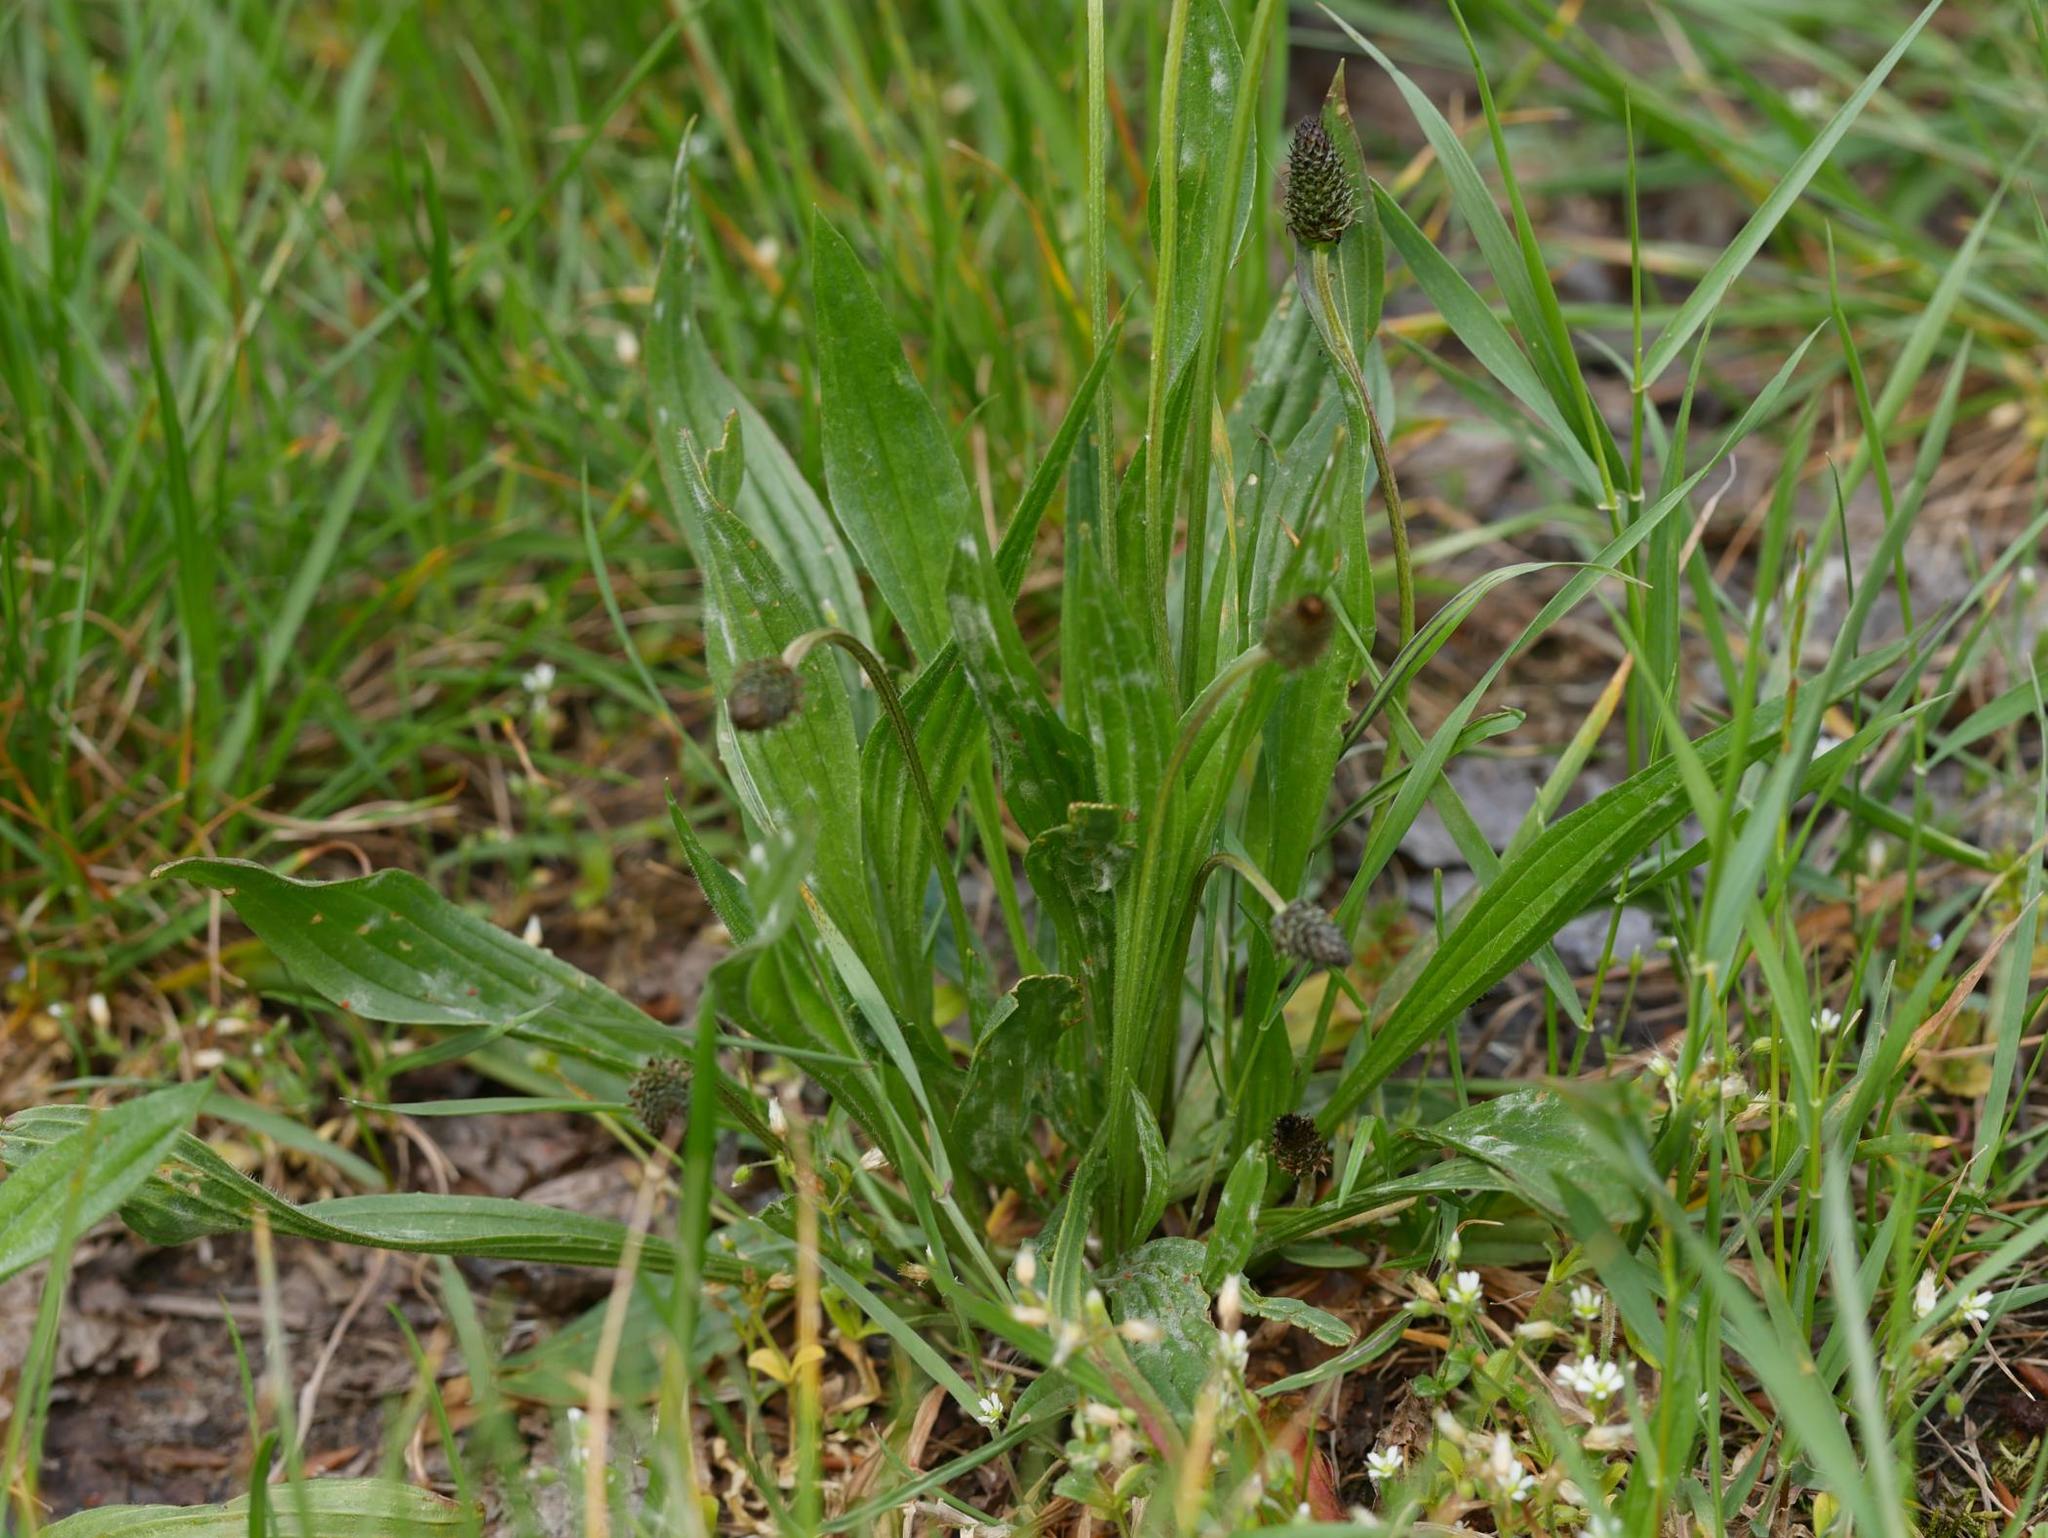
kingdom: Plantae
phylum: Tracheophyta
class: Magnoliopsida
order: Lamiales
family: Plantaginaceae
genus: Plantago
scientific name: Plantago lanceolata
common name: Ribwort plantain
